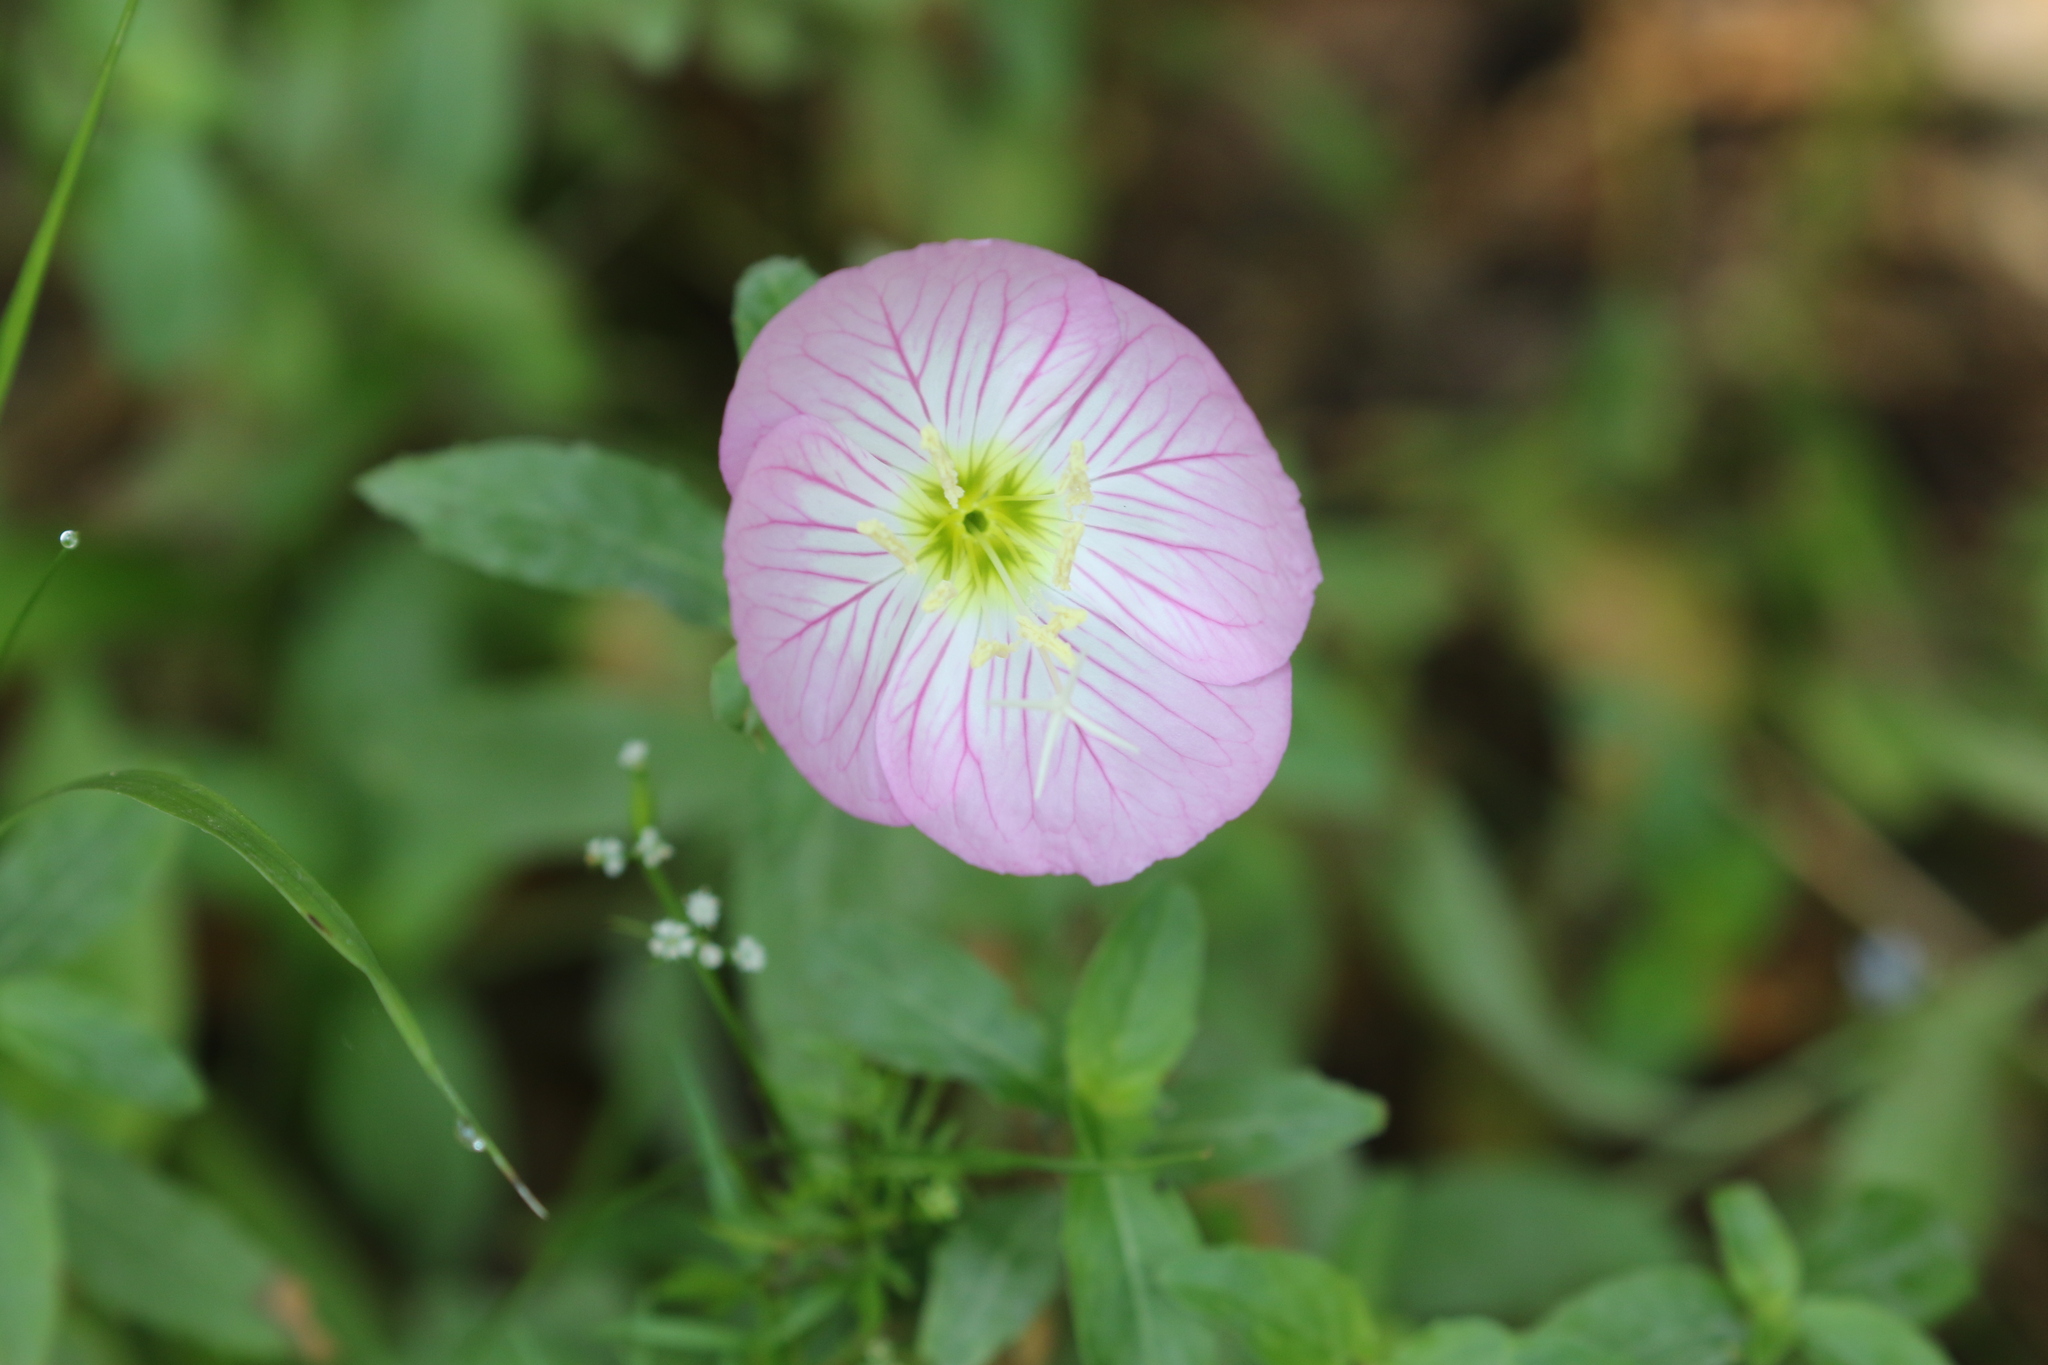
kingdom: Plantae
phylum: Tracheophyta
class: Magnoliopsida
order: Myrtales
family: Onagraceae
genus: Oenothera
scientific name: Oenothera speciosa
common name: White evening-primrose
